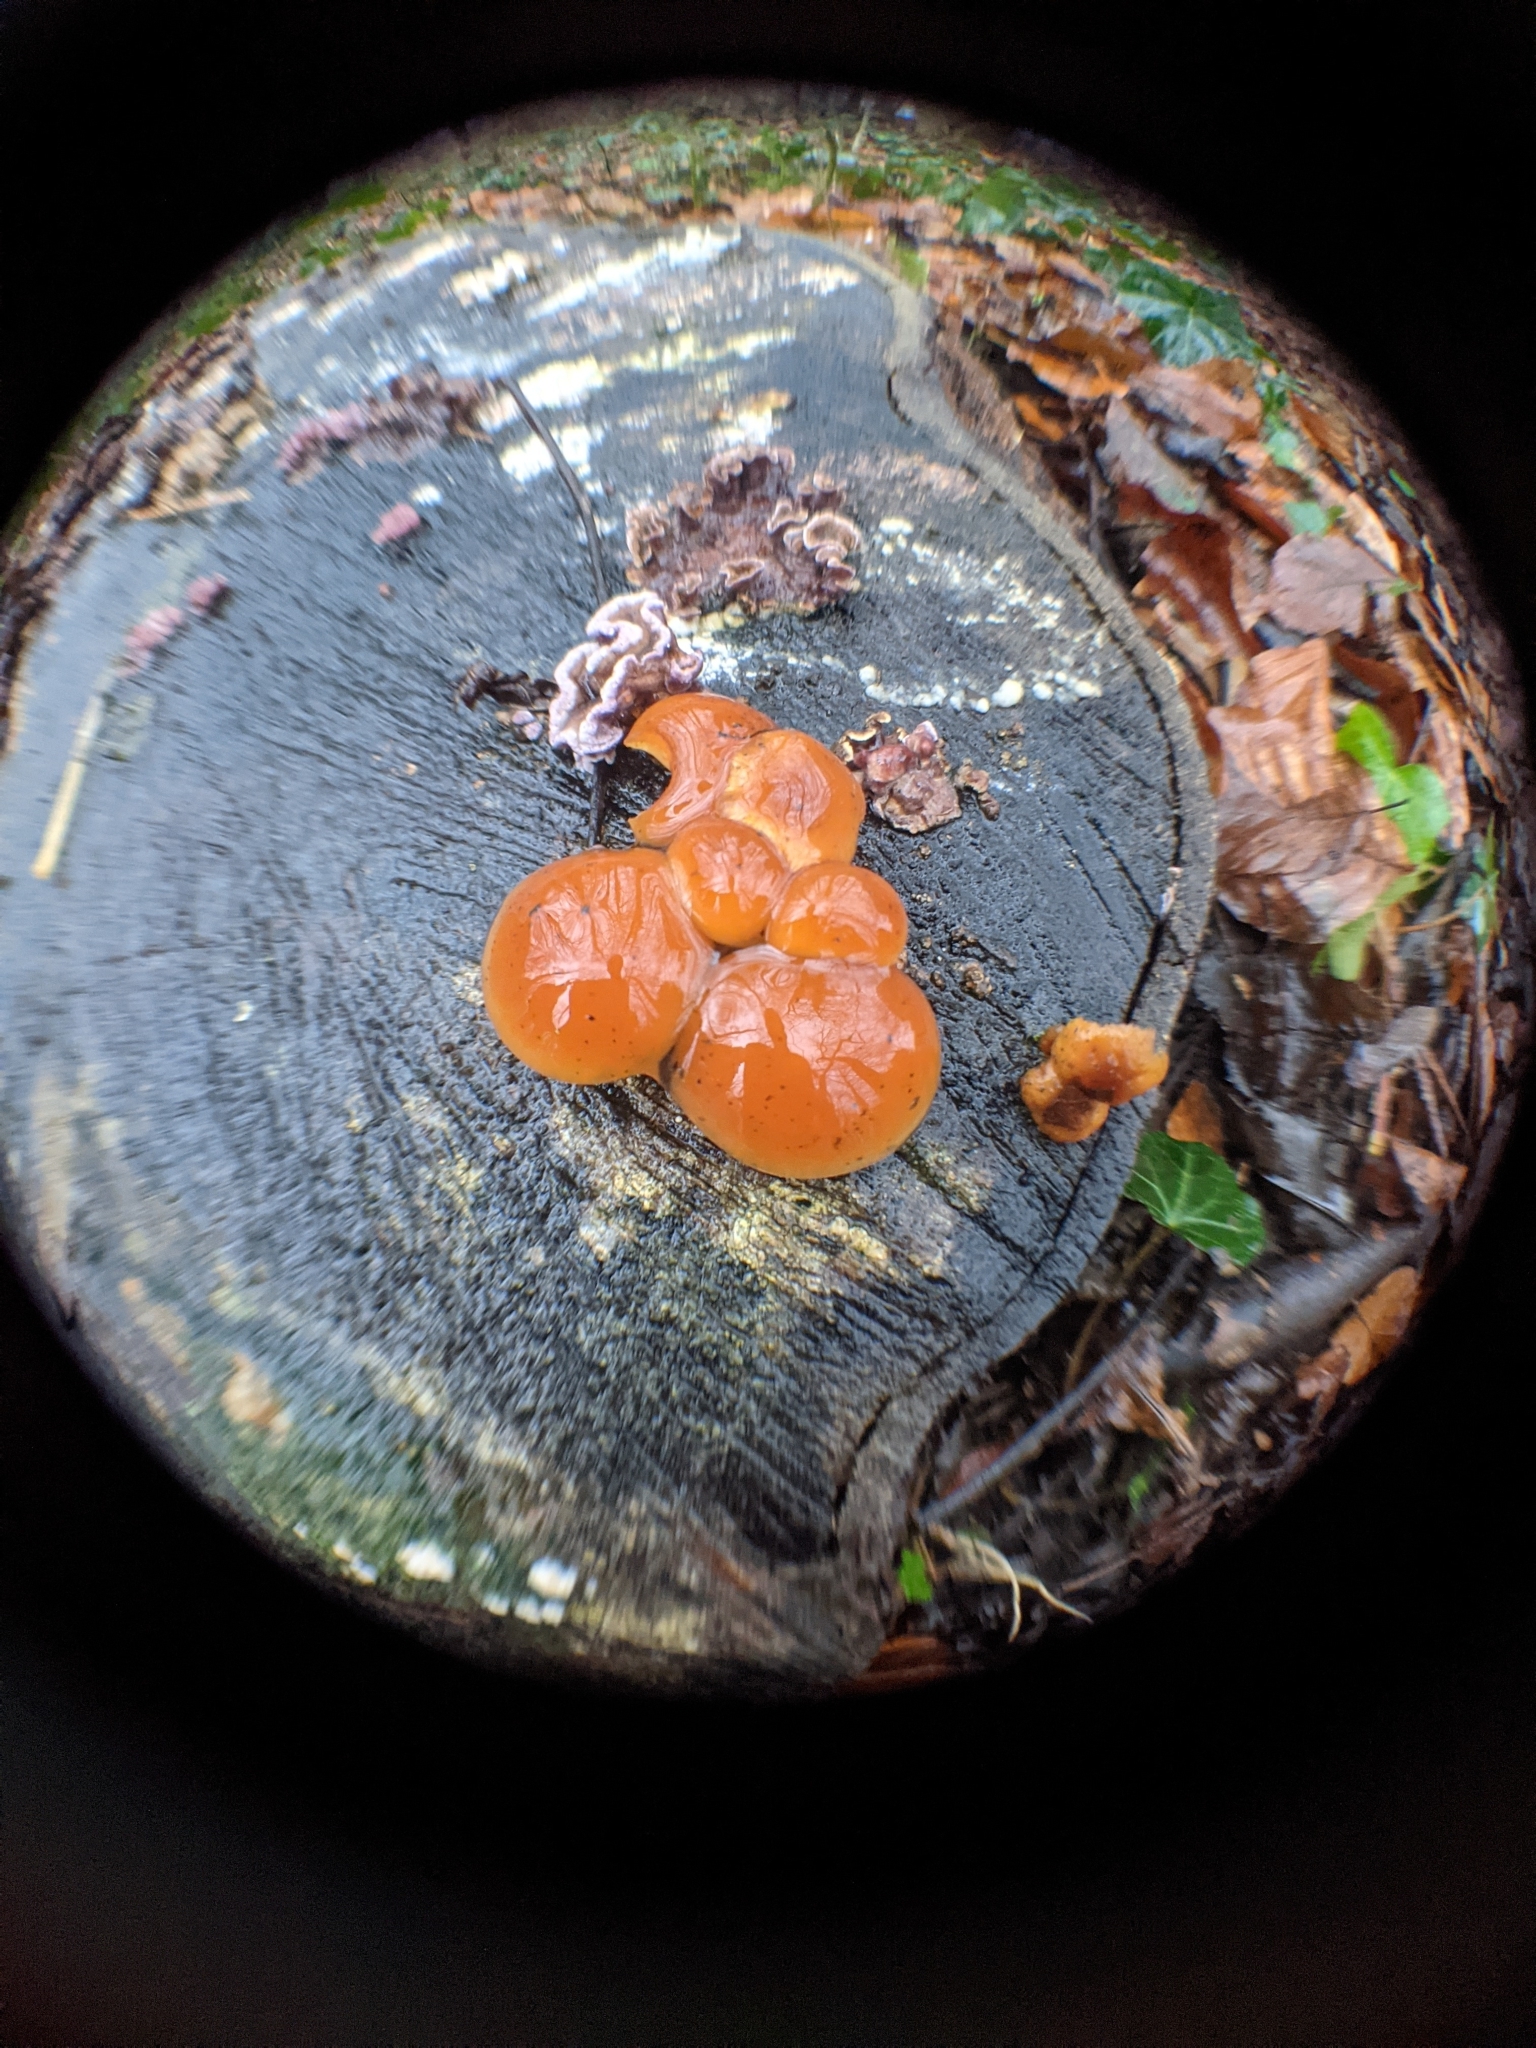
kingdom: Fungi
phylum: Basidiomycota
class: Agaricomycetes
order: Agaricales
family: Physalacriaceae
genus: Flammulina
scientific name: Flammulina
